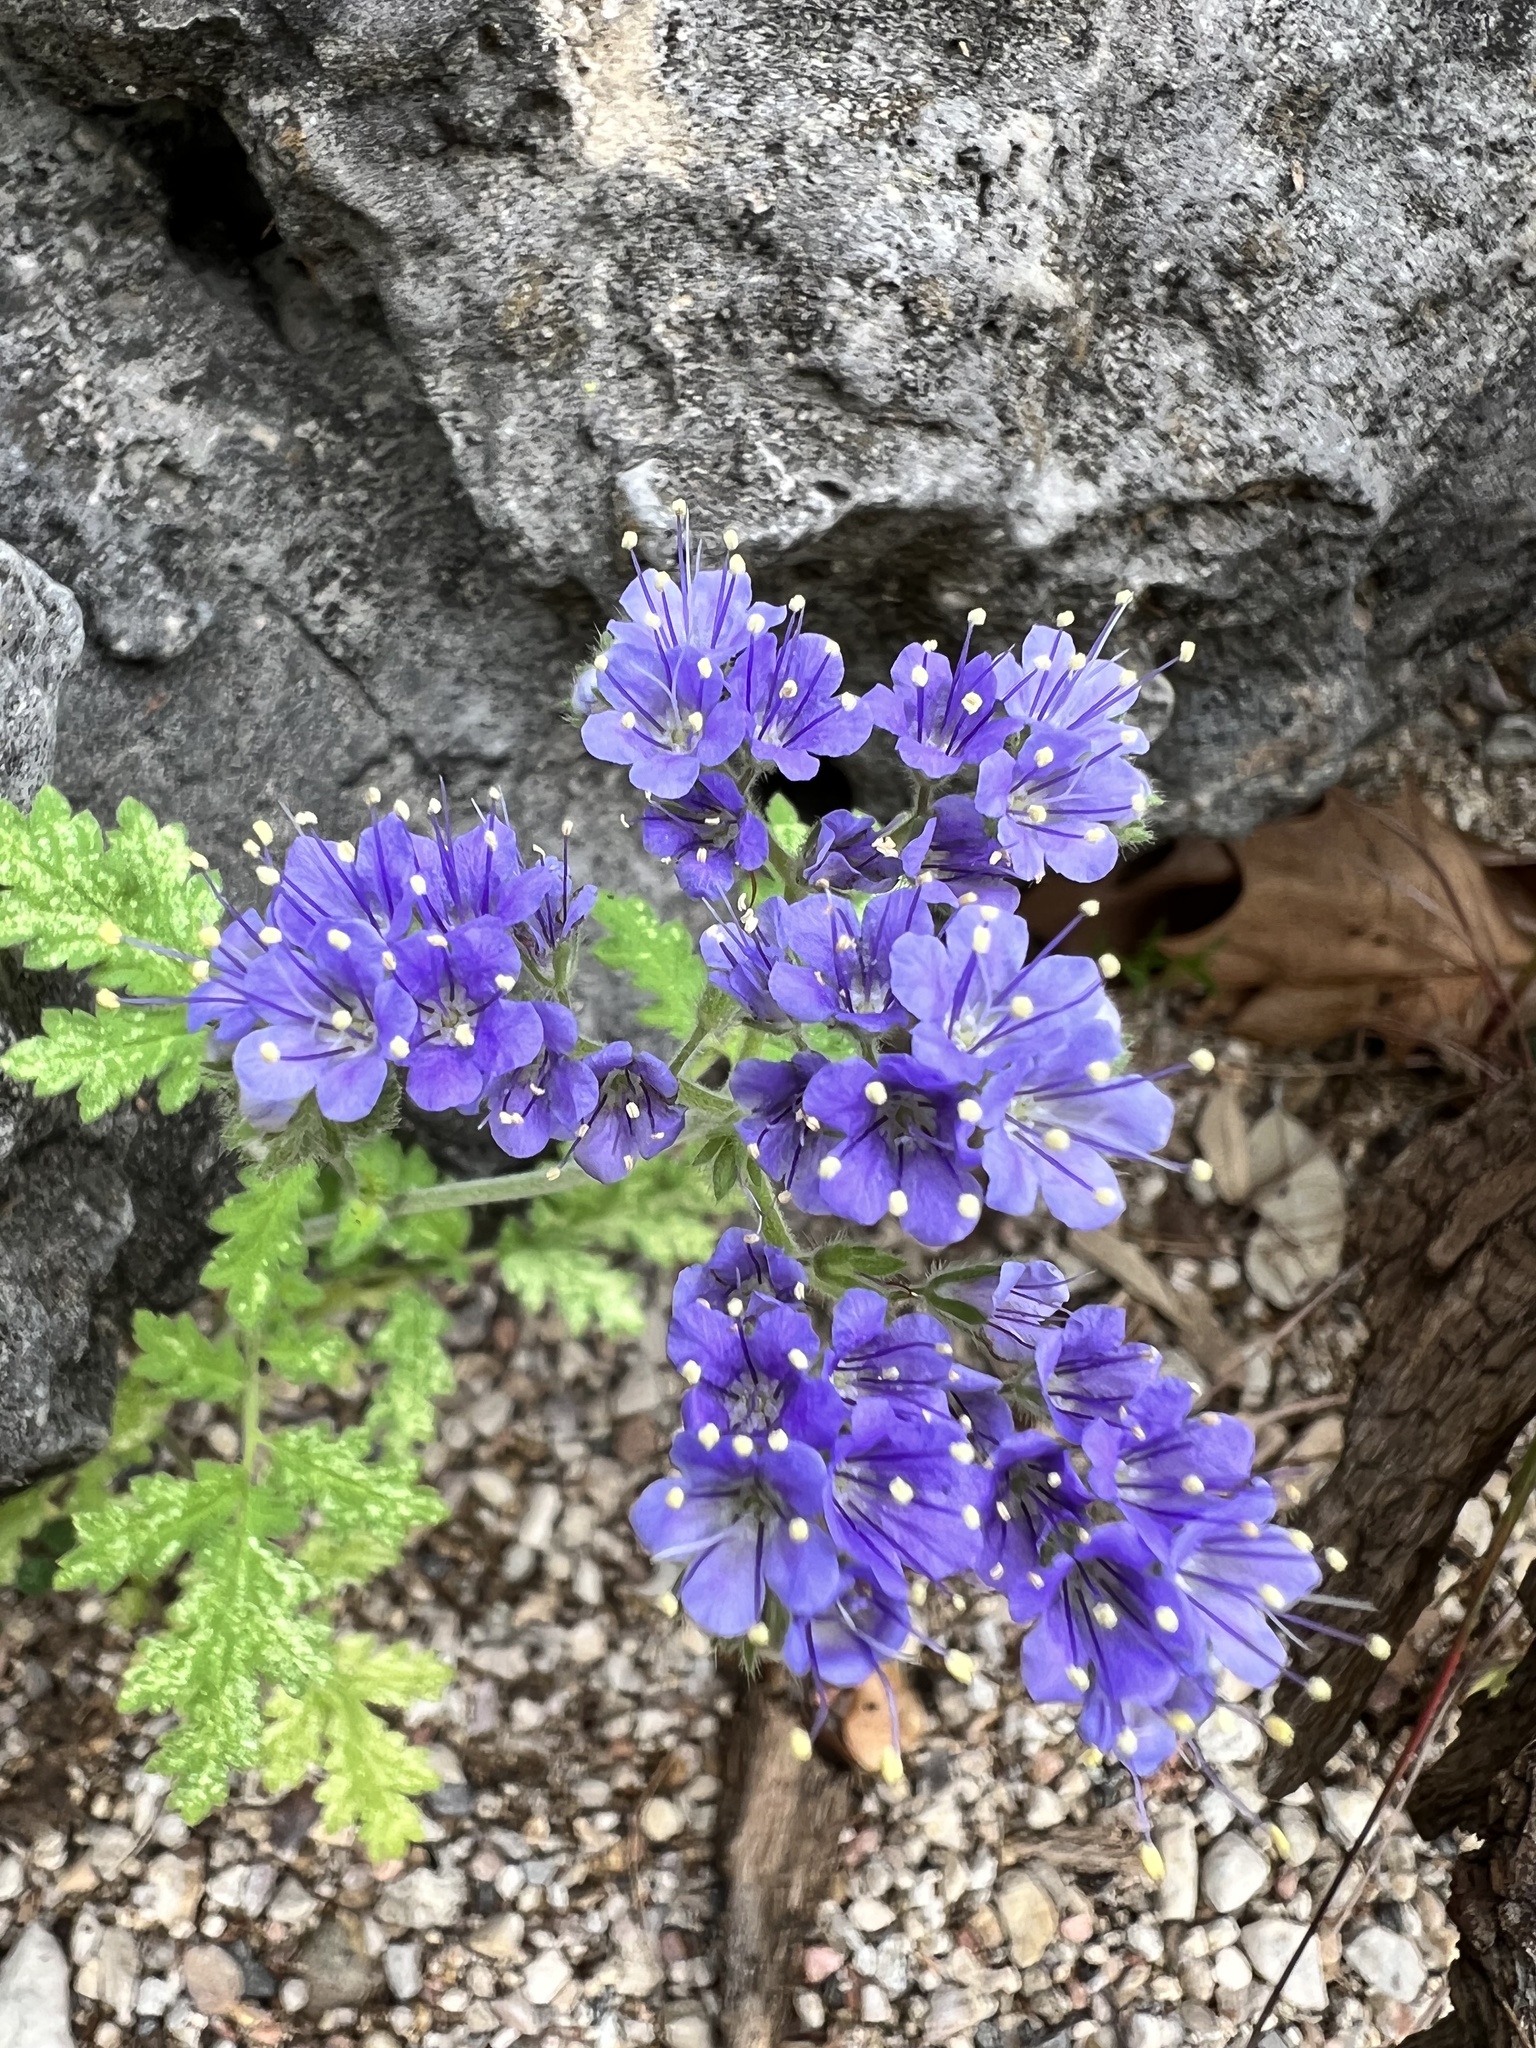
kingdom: Plantae
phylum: Tracheophyta
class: Magnoliopsida
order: Boraginales
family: Hydrophyllaceae
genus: Phacelia
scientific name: Phacelia congesta
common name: Blue curls
